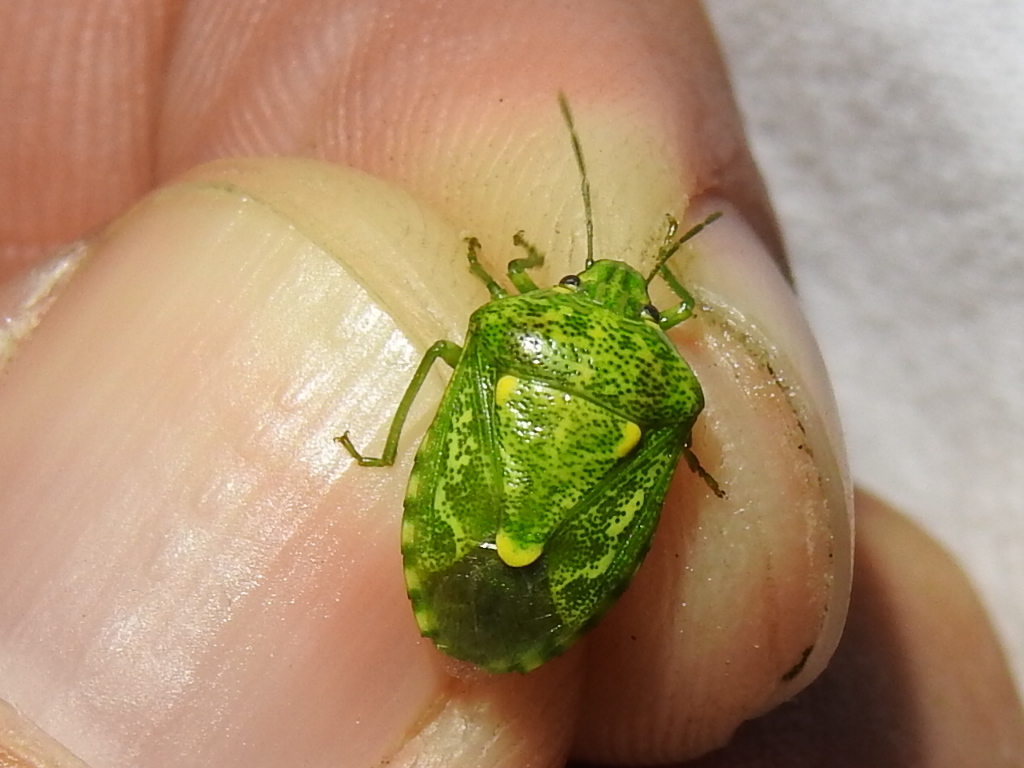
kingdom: Animalia
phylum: Arthropoda
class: Insecta
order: Hemiptera
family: Pentatomidae
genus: Banasa
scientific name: Banasa euchlora
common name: Cedar berry bug
